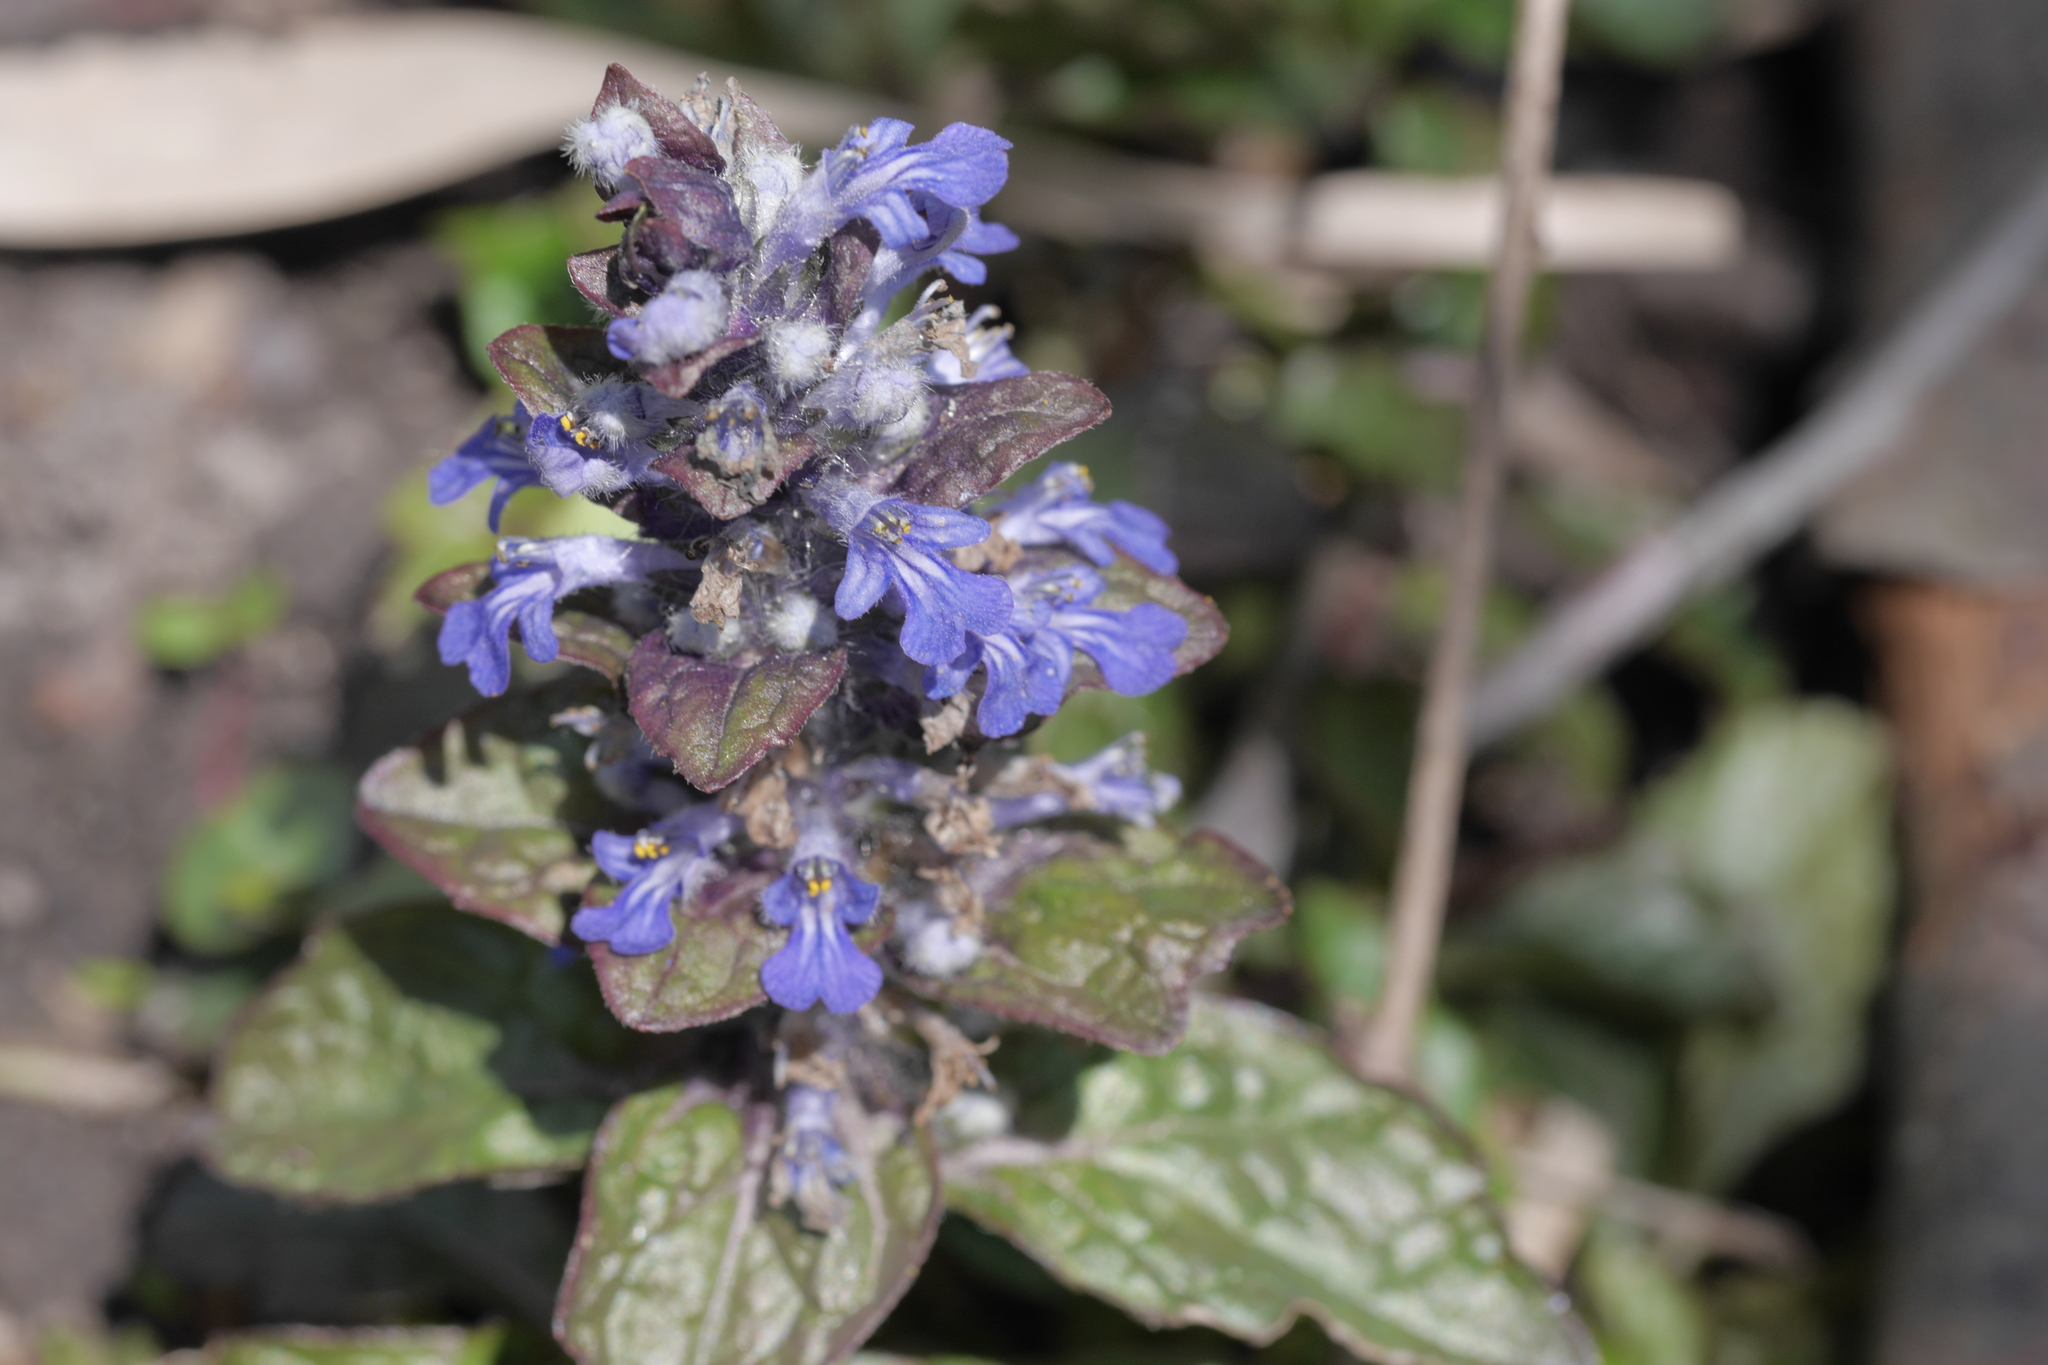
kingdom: Plantae
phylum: Tracheophyta
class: Magnoliopsida
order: Lamiales
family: Lamiaceae
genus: Ajuga
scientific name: Ajuga reptans
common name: Bugle
